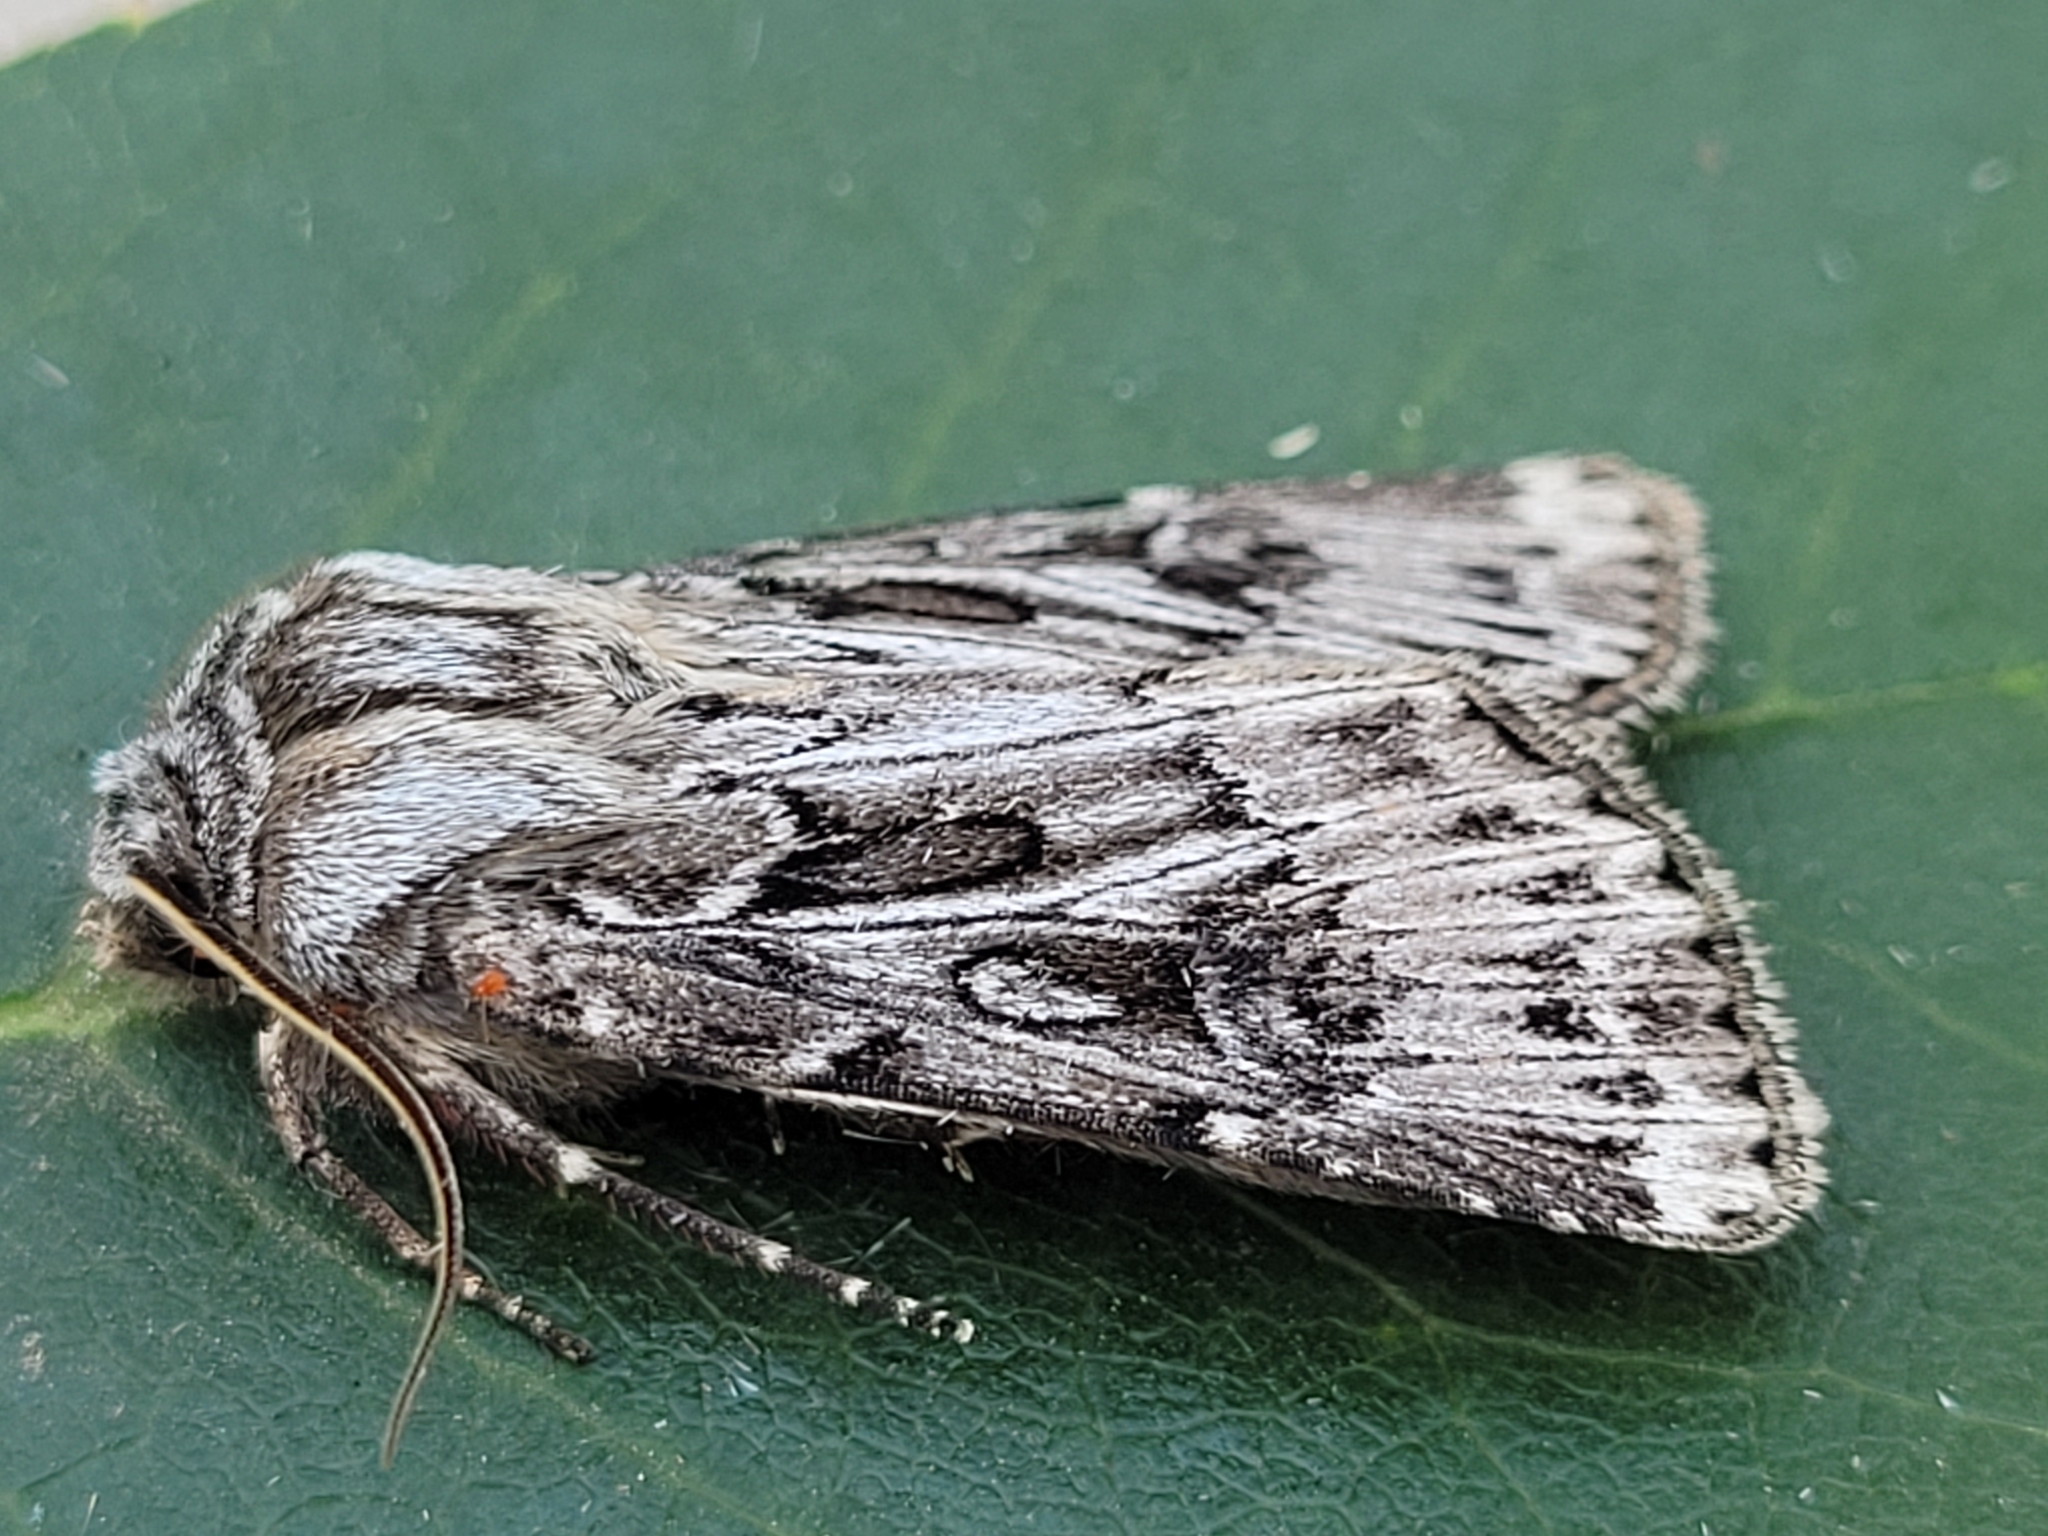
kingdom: Animalia
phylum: Arthropoda
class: Insecta
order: Lepidoptera
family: Noctuidae
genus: Agrotis
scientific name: Agrotis robustior
